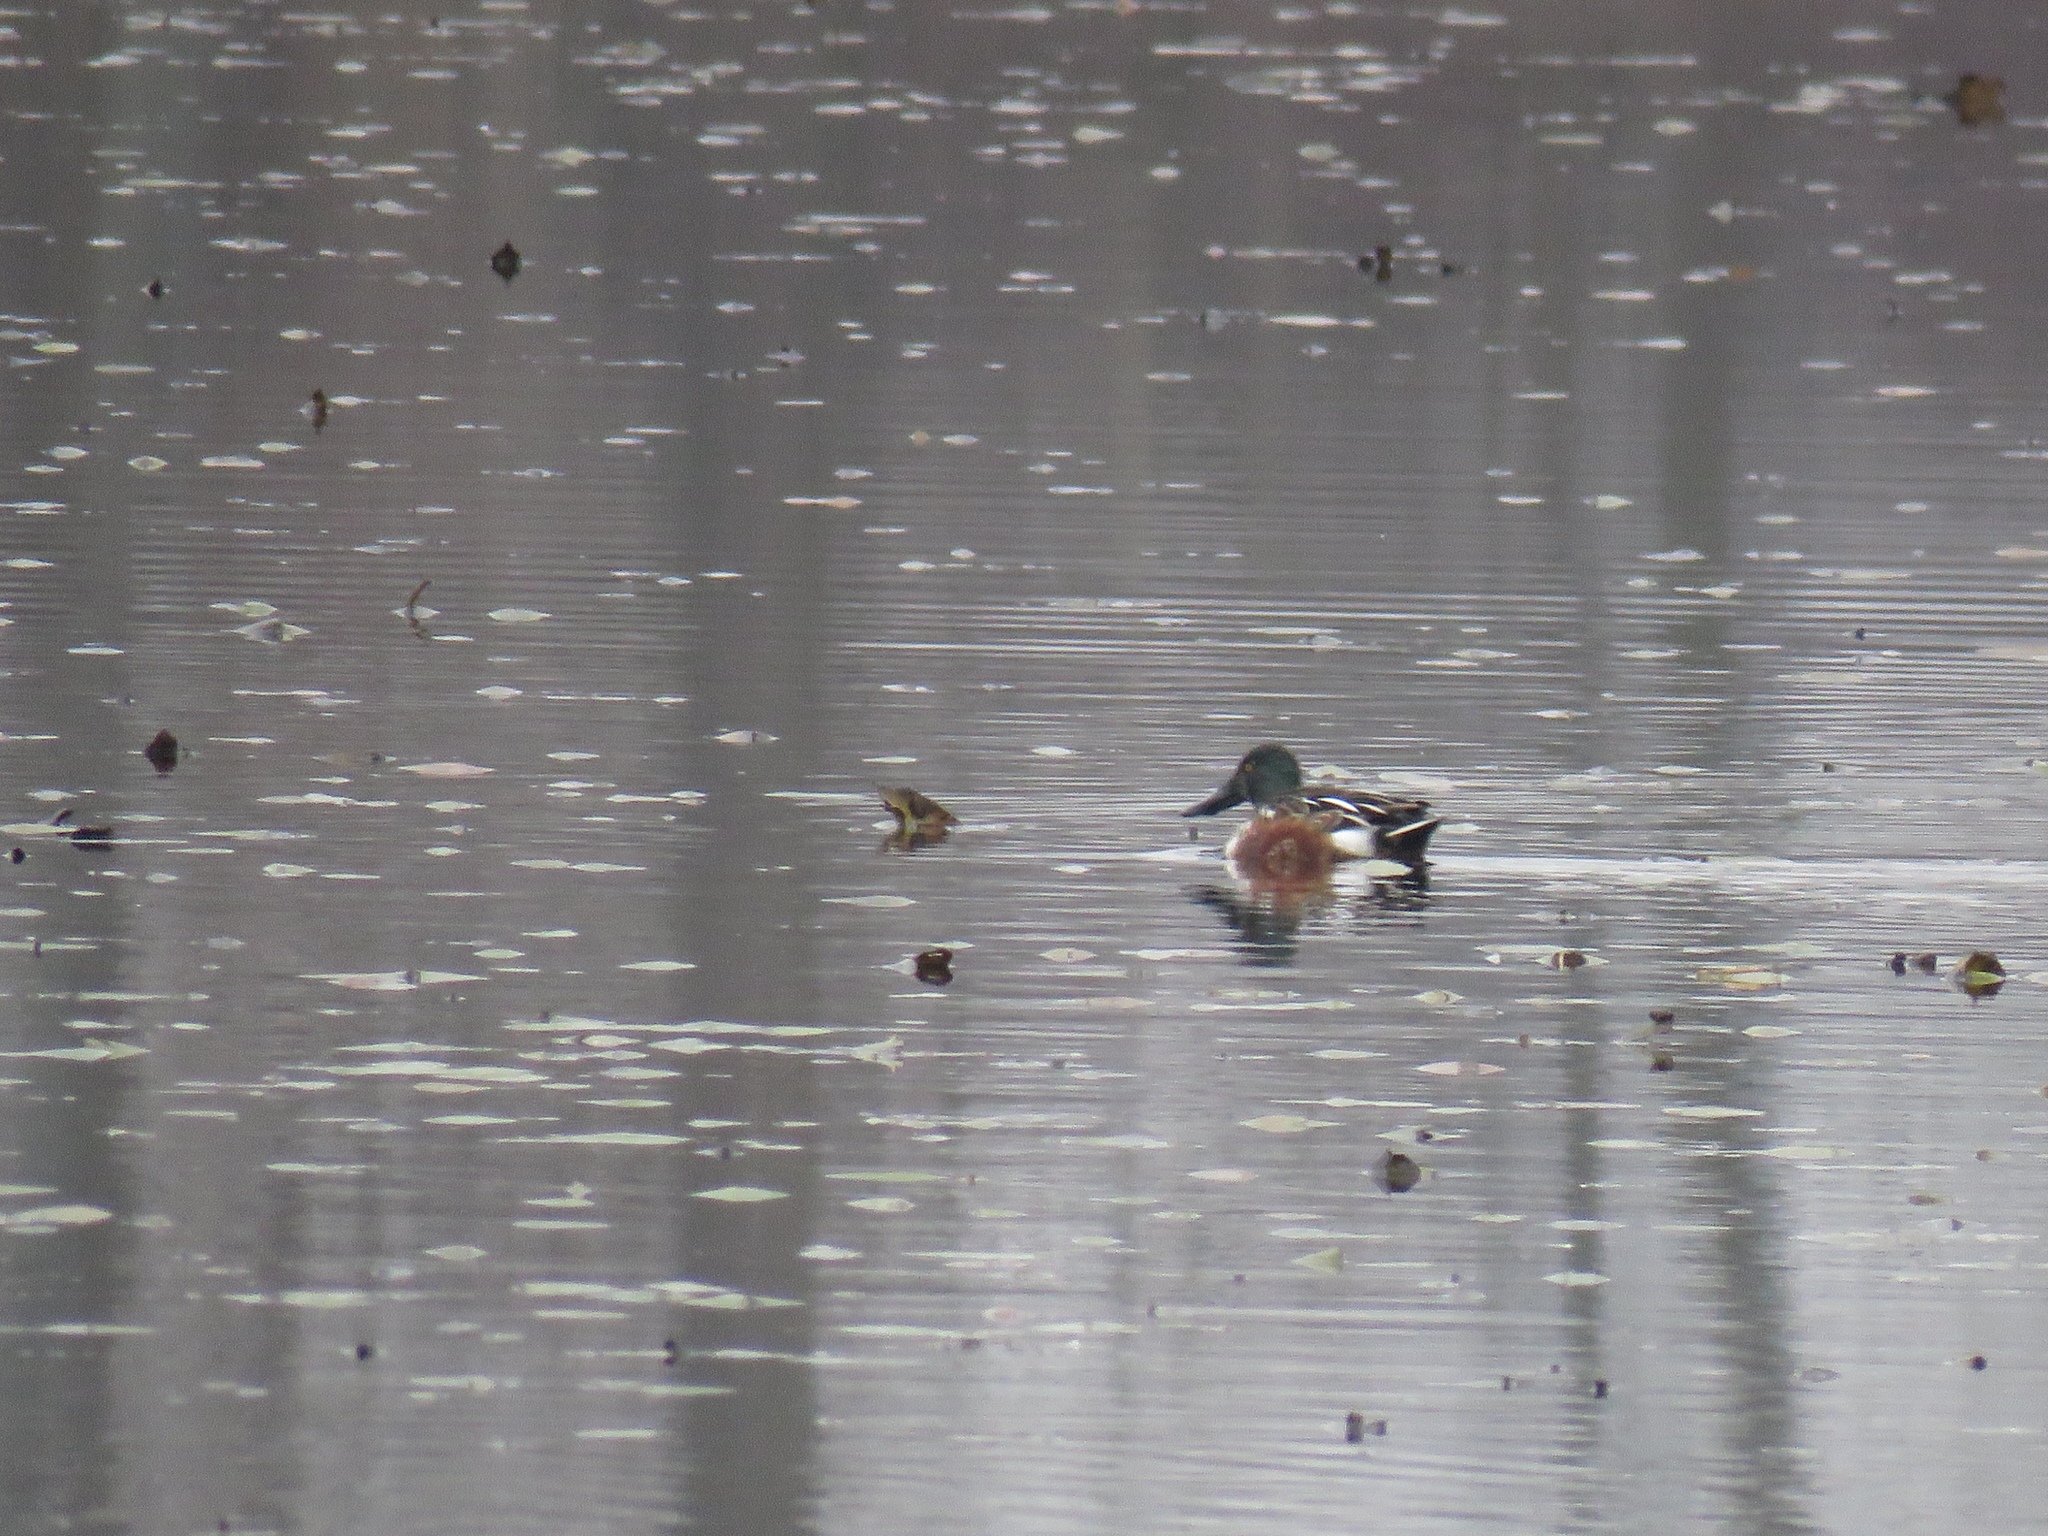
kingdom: Animalia
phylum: Chordata
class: Aves
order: Anseriformes
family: Anatidae
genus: Spatula
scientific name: Spatula clypeata
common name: Northern shoveler
